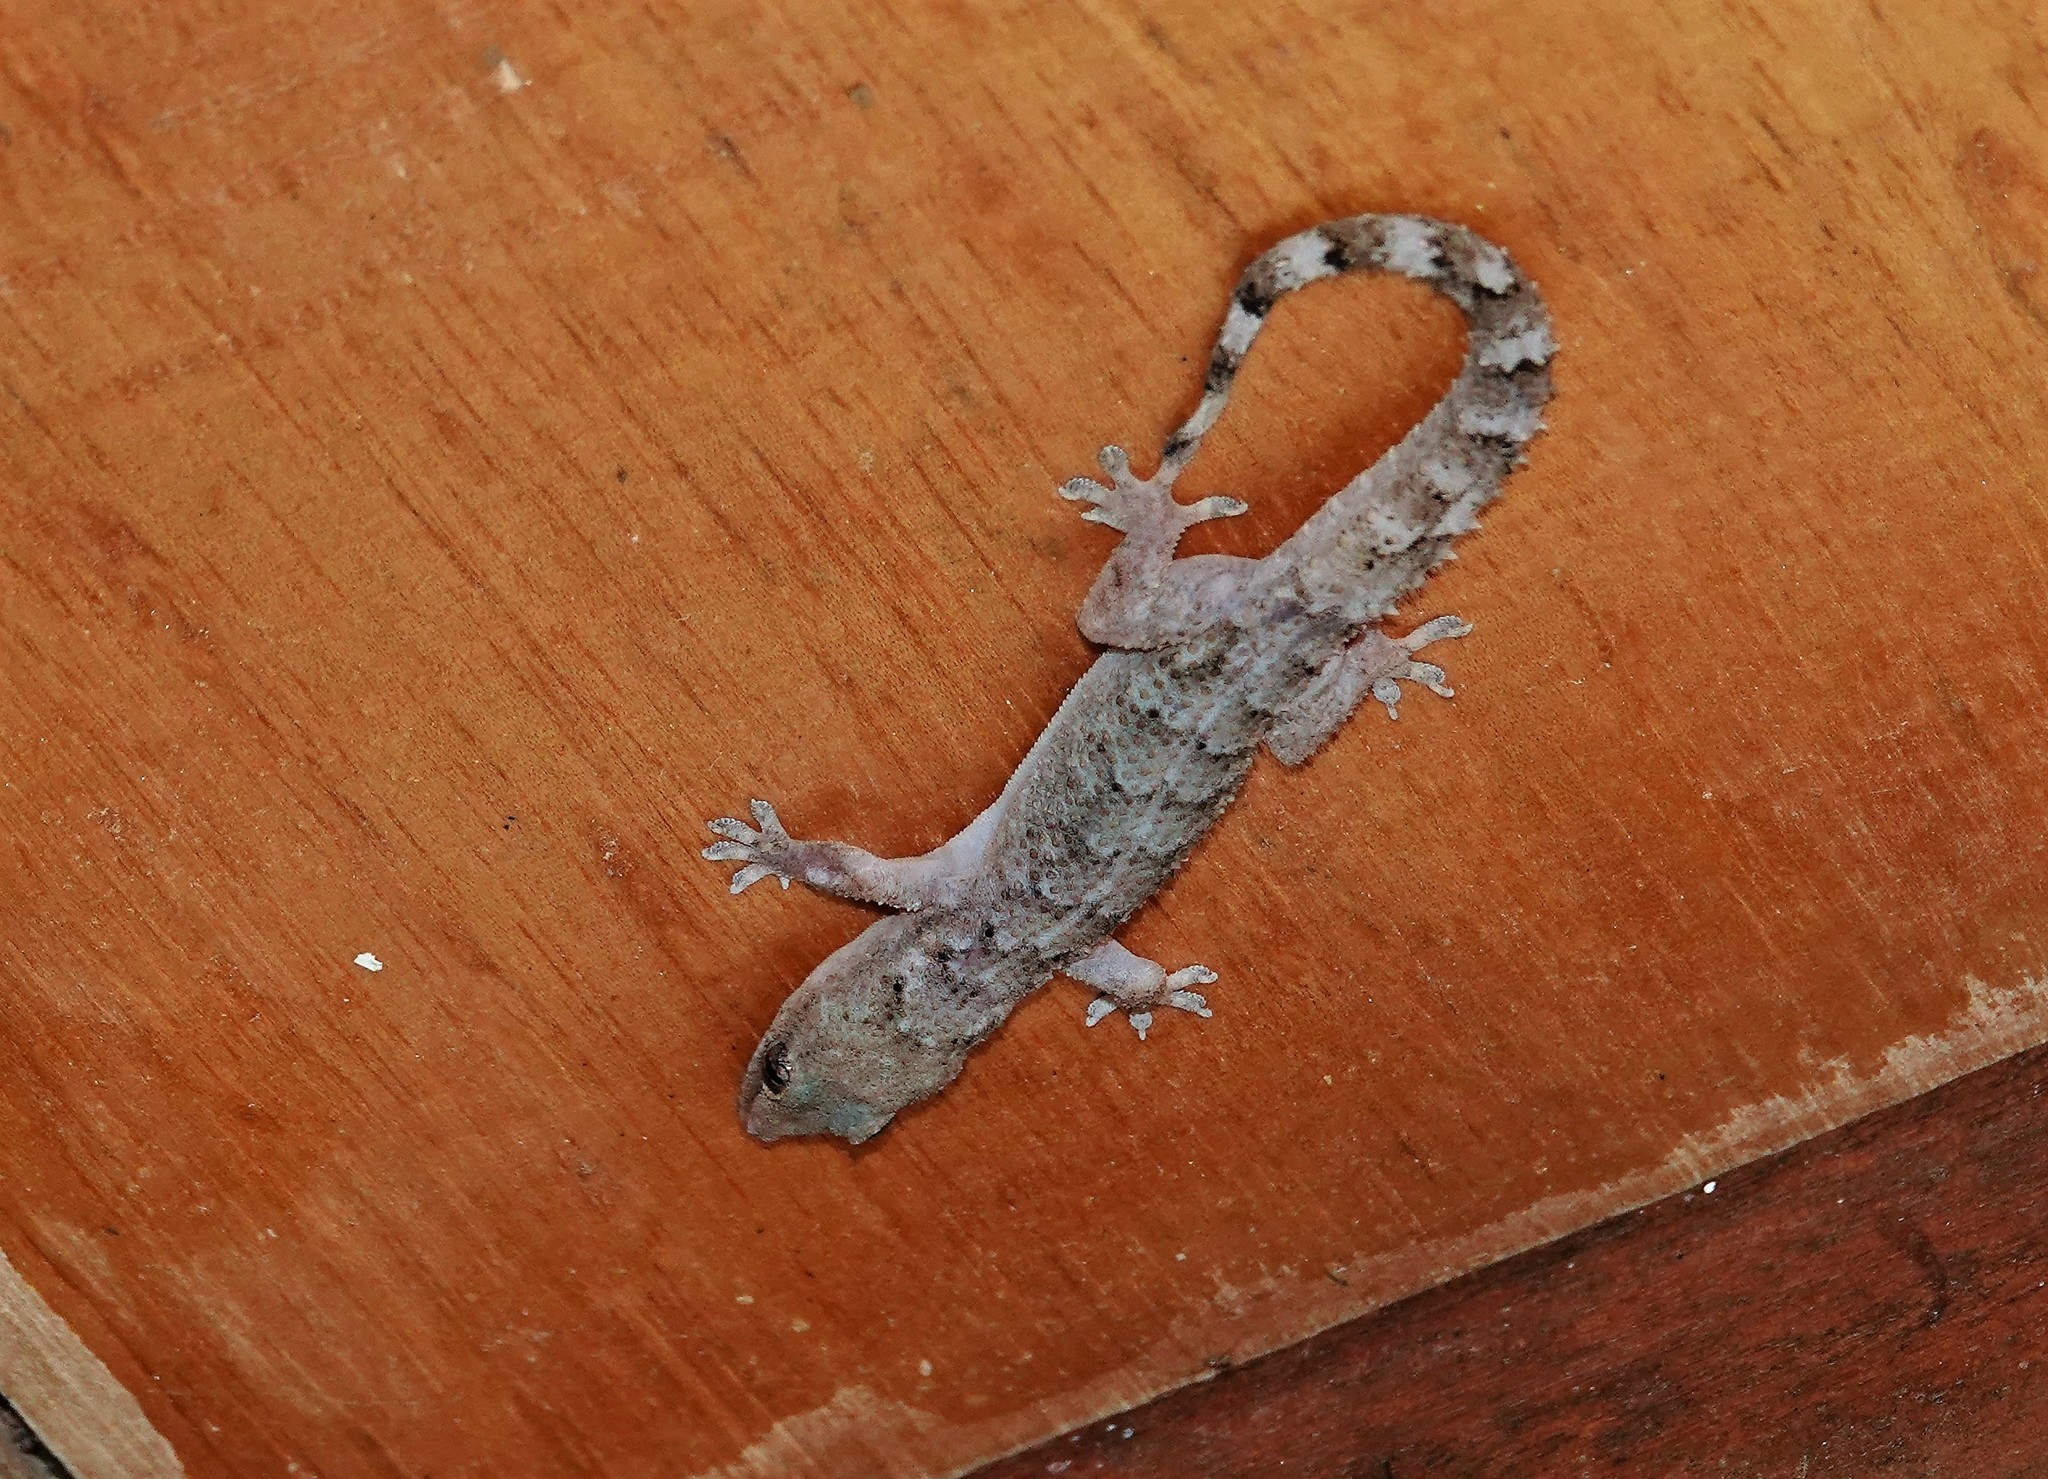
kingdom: Animalia
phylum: Chordata
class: Squamata
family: Gekkonidae
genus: Hemidactylus
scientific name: Hemidactylus palaichthus
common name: Antilles leaf-toed gecko
